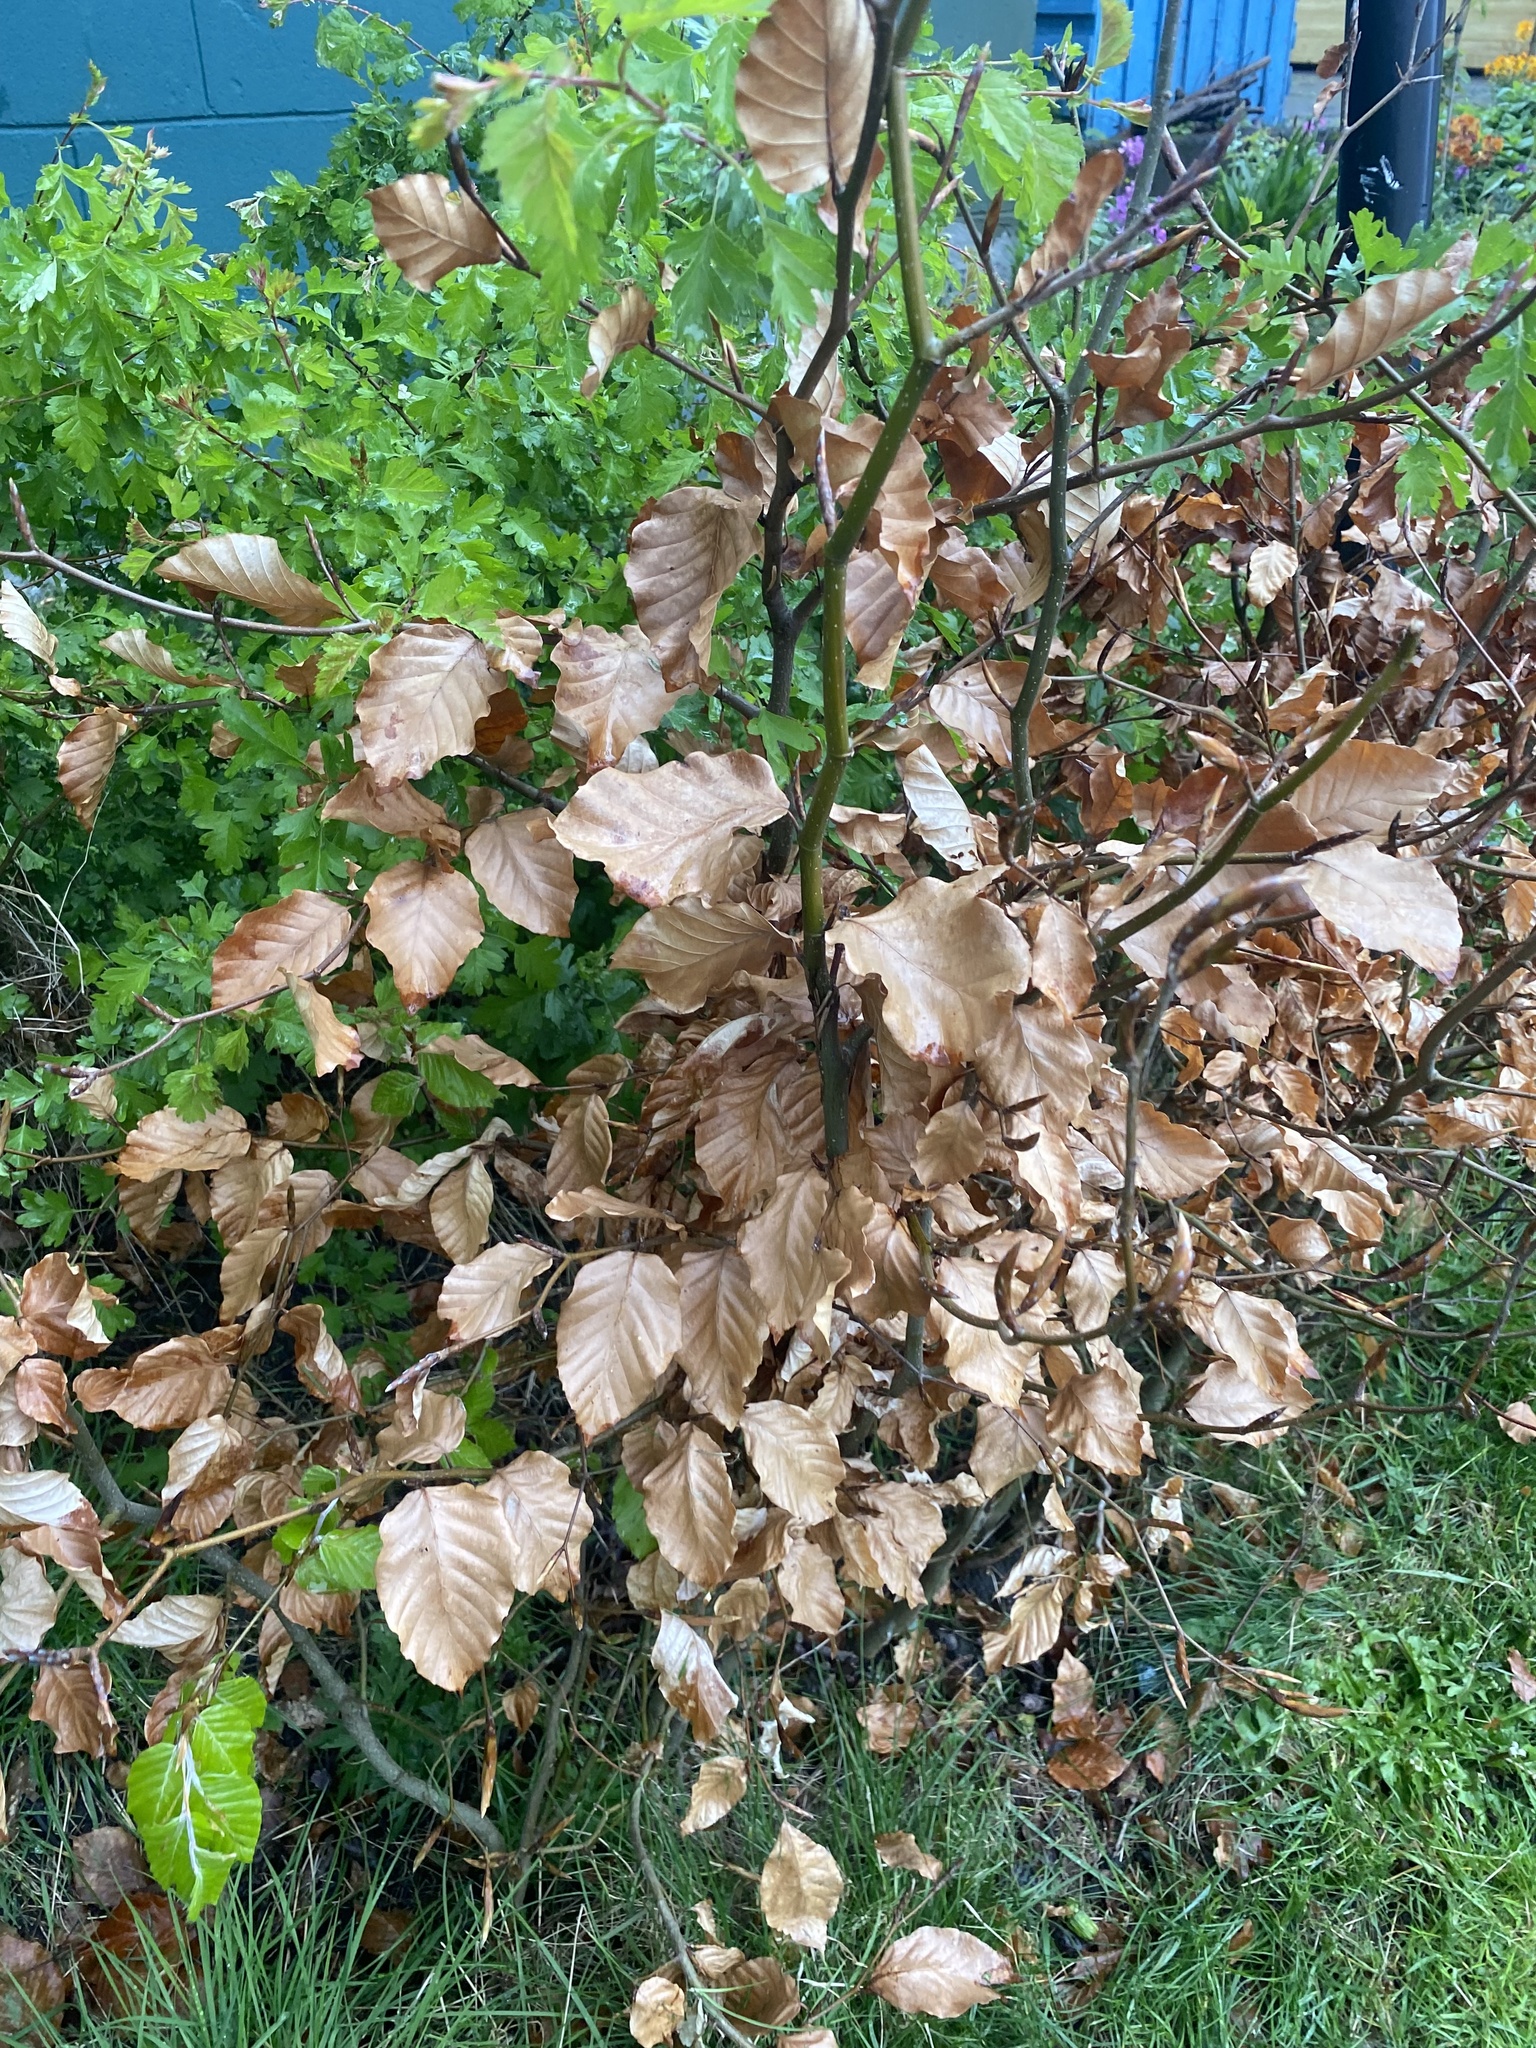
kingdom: Plantae
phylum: Tracheophyta
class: Magnoliopsida
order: Fagales
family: Fagaceae
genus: Fagus
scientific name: Fagus sylvatica
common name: Beech
